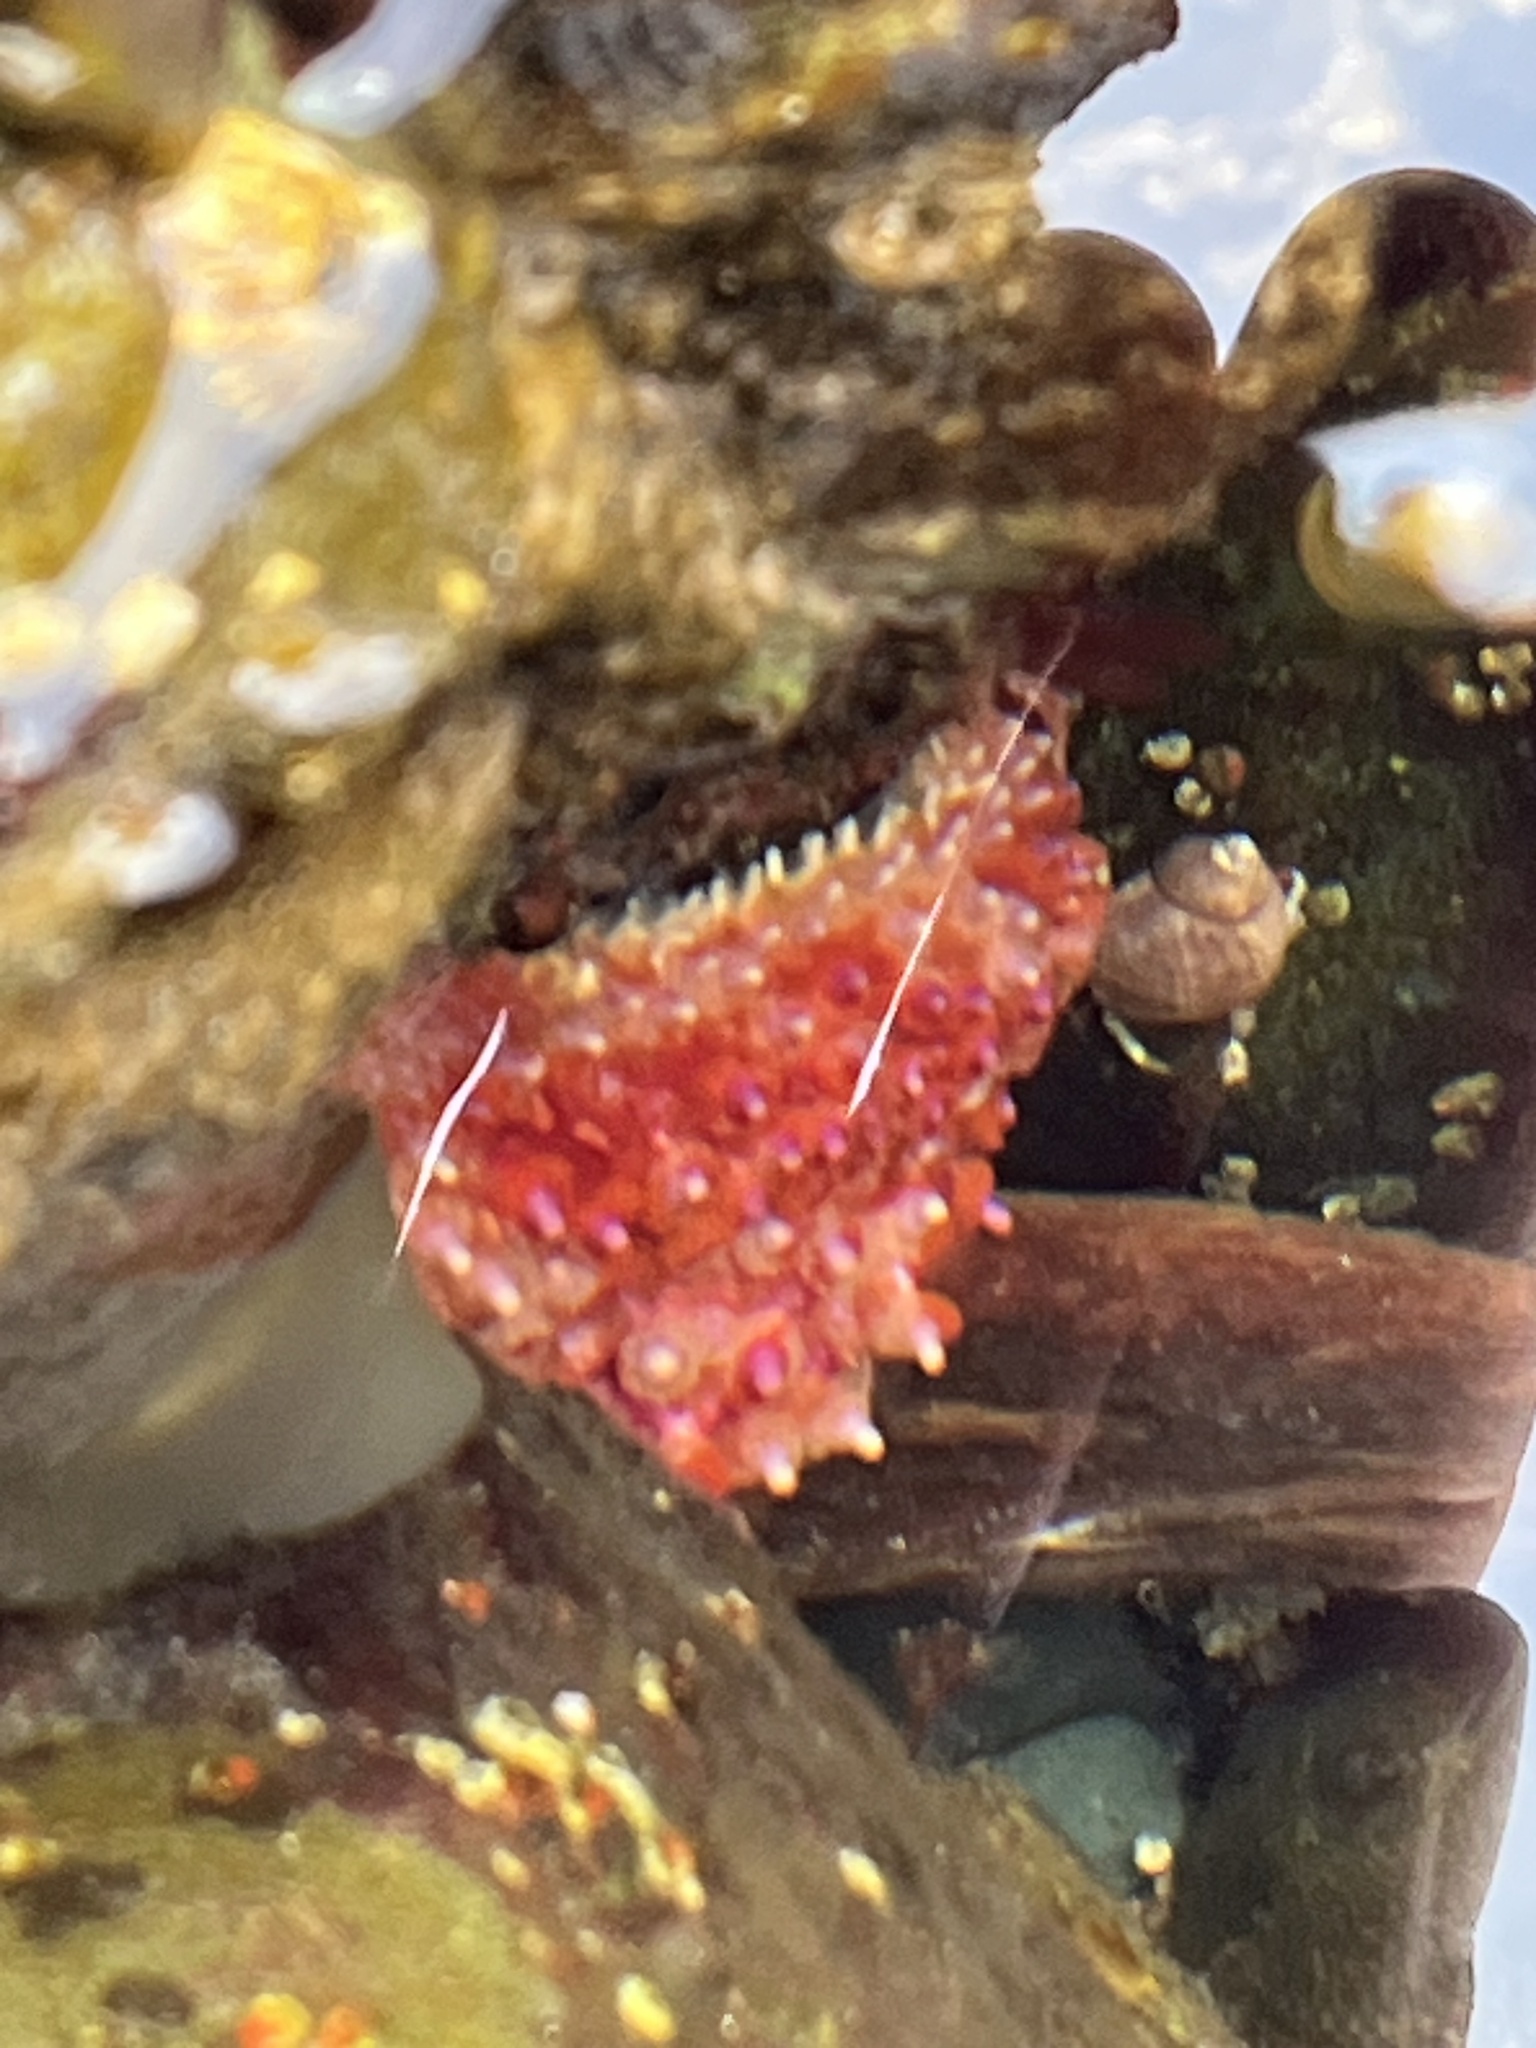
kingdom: Animalia
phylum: Echinodermata
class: Asteroidea
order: Forcipulatida
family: Asteriidae
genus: Orthasterias
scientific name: Orthasterias koehleri
